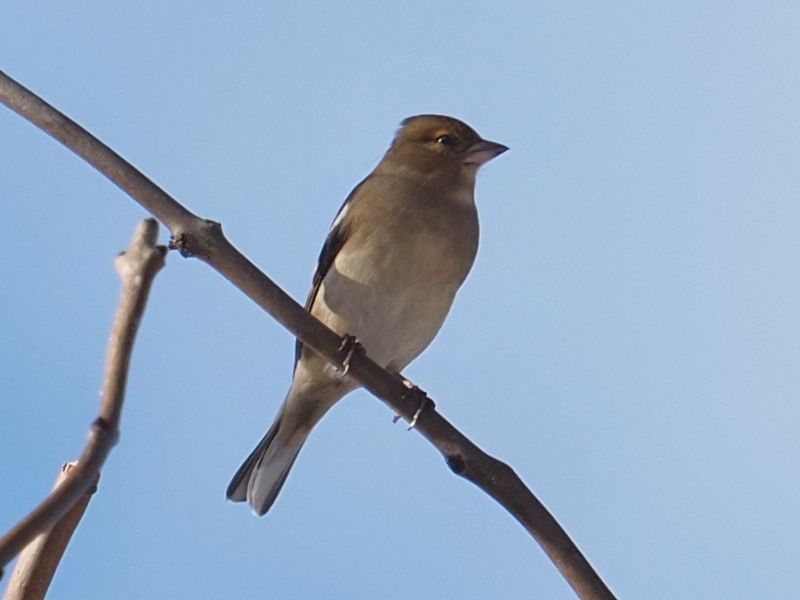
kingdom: Animalia
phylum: Chordata
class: Aves
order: Passeriformes
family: Fringillidae
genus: Fringilla
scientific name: Fringilla coelebs
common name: Common chaffinch
